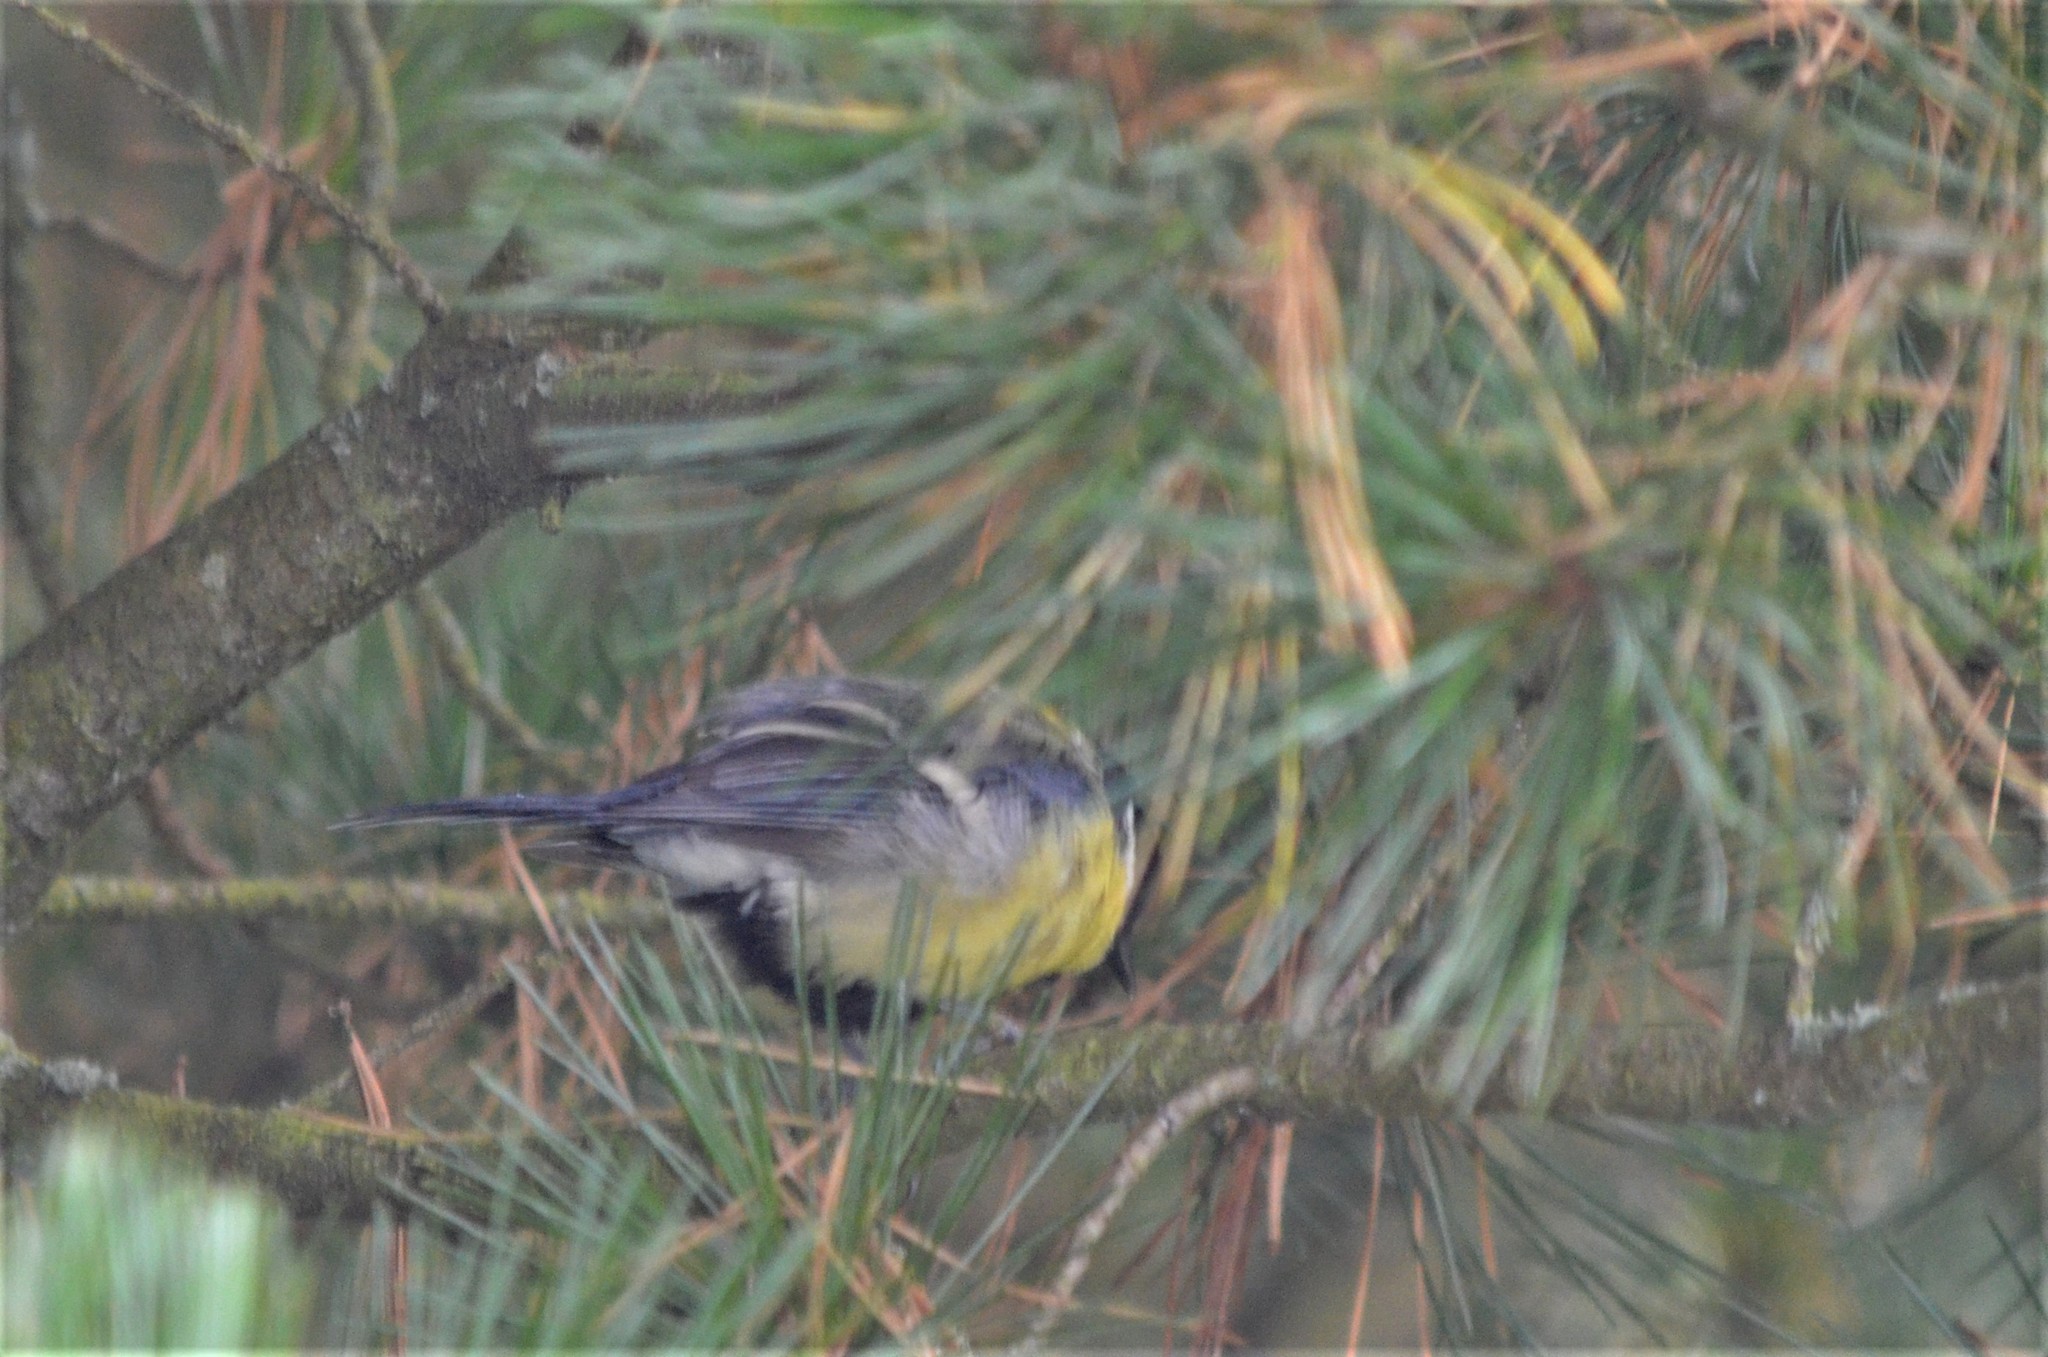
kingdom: Animalia
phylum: Chordata
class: Aves
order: Passeriformes
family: Paridae
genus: Parus
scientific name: Parus major
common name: Great tit
